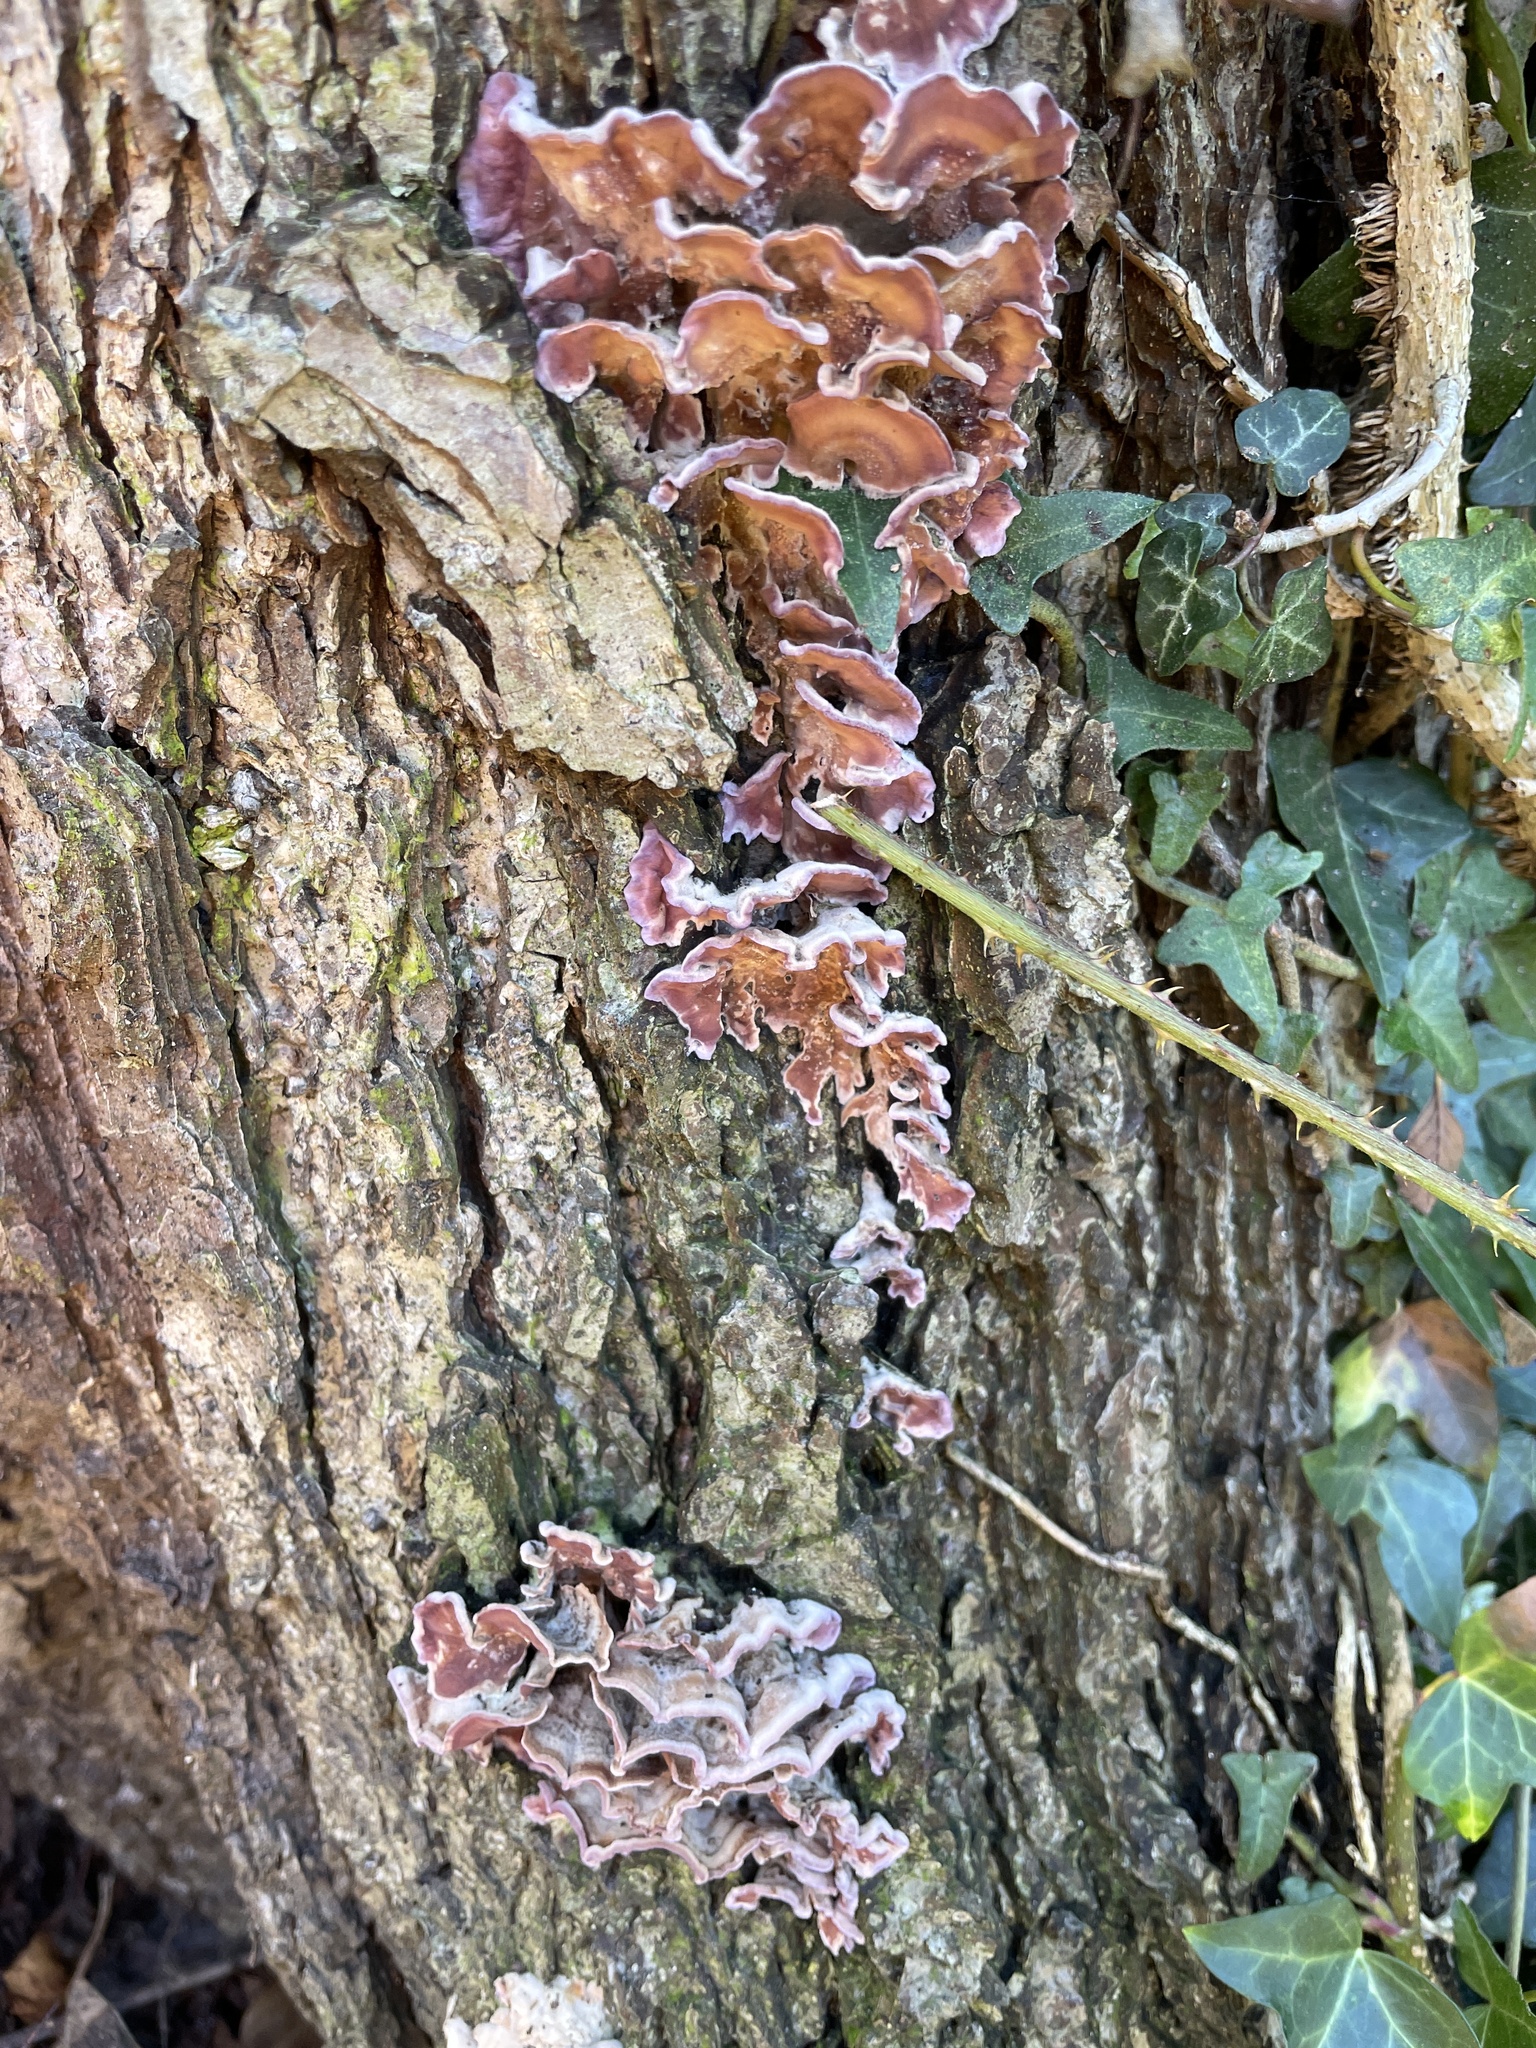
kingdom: Fungi
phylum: Basidiomycota
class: Agaricomycetes
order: Agaricales
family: Cyphellaceae
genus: Chondrostereum
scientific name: Chondrostereum purpureum
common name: Silver leaf disease
